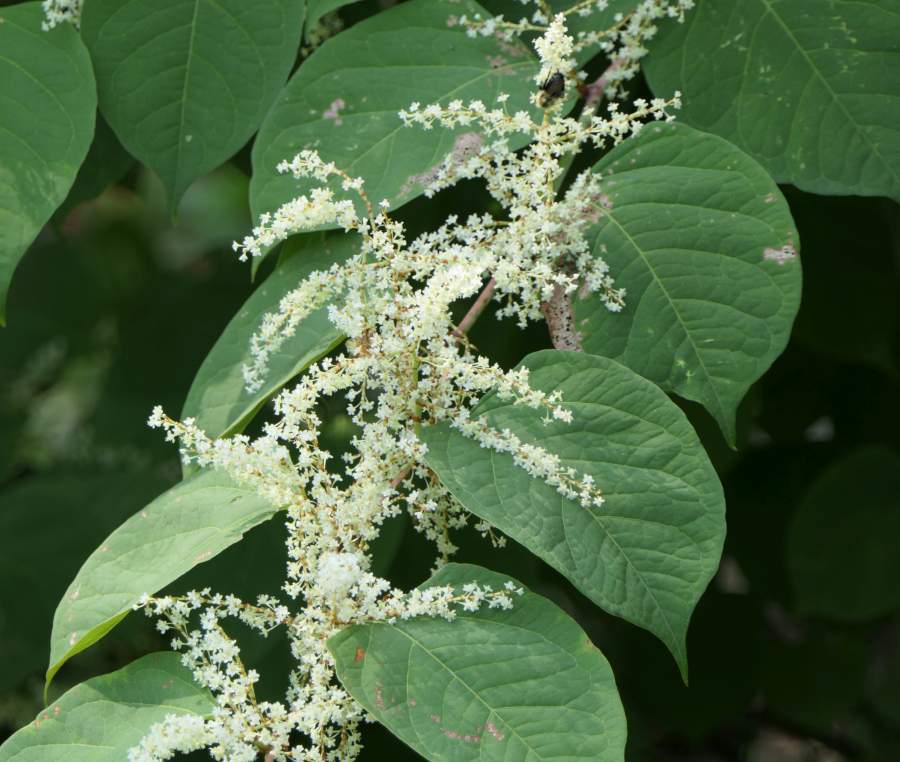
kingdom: Plantae
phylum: Tracheophyta
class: Magnoliopsida
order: Caryophyllales
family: Polygonaceae
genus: Reynoutria
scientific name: Reynoutria japonica
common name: Japanese knotweed
